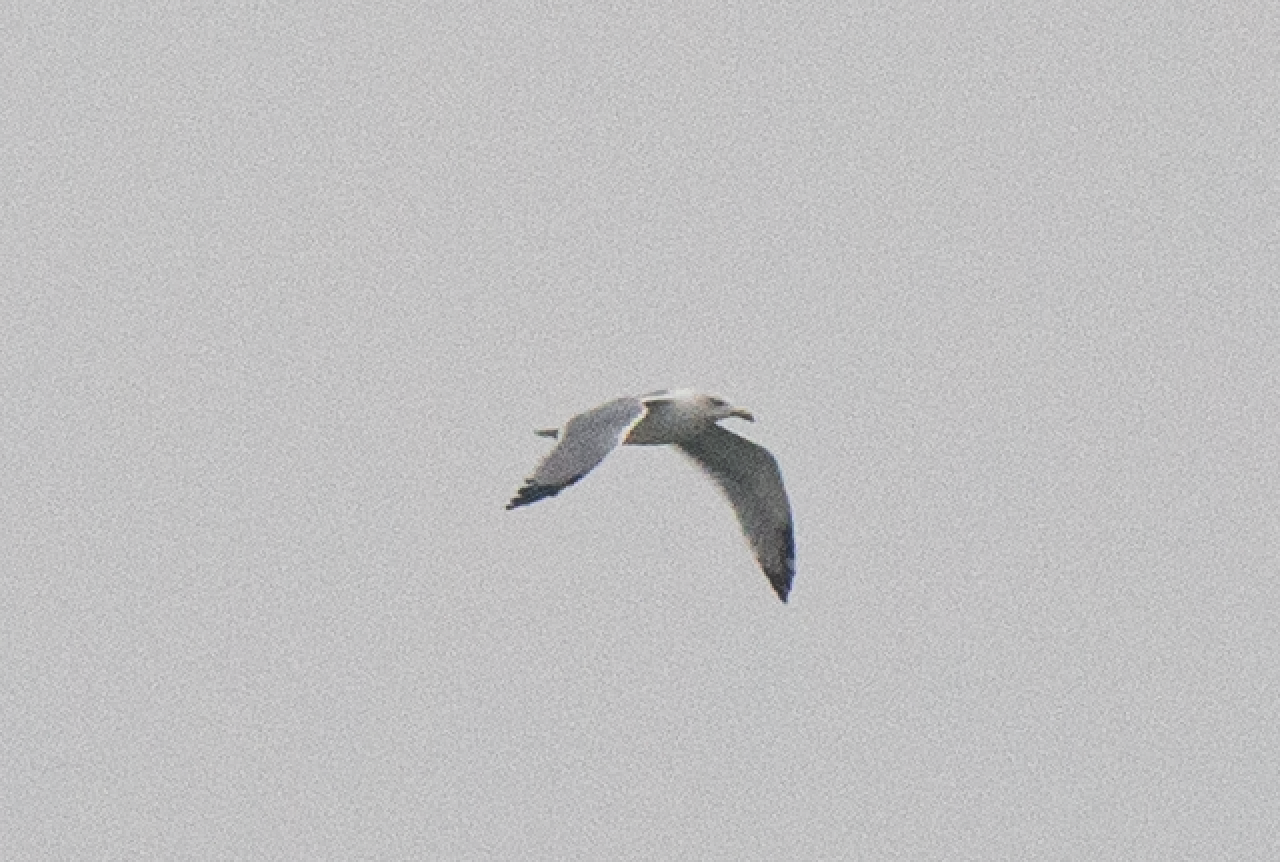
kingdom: Animalia
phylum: Chordata
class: Aves
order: Charadriiformes
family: Laridae
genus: Larus
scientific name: Larus michahellis
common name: Yellow-legged gull
